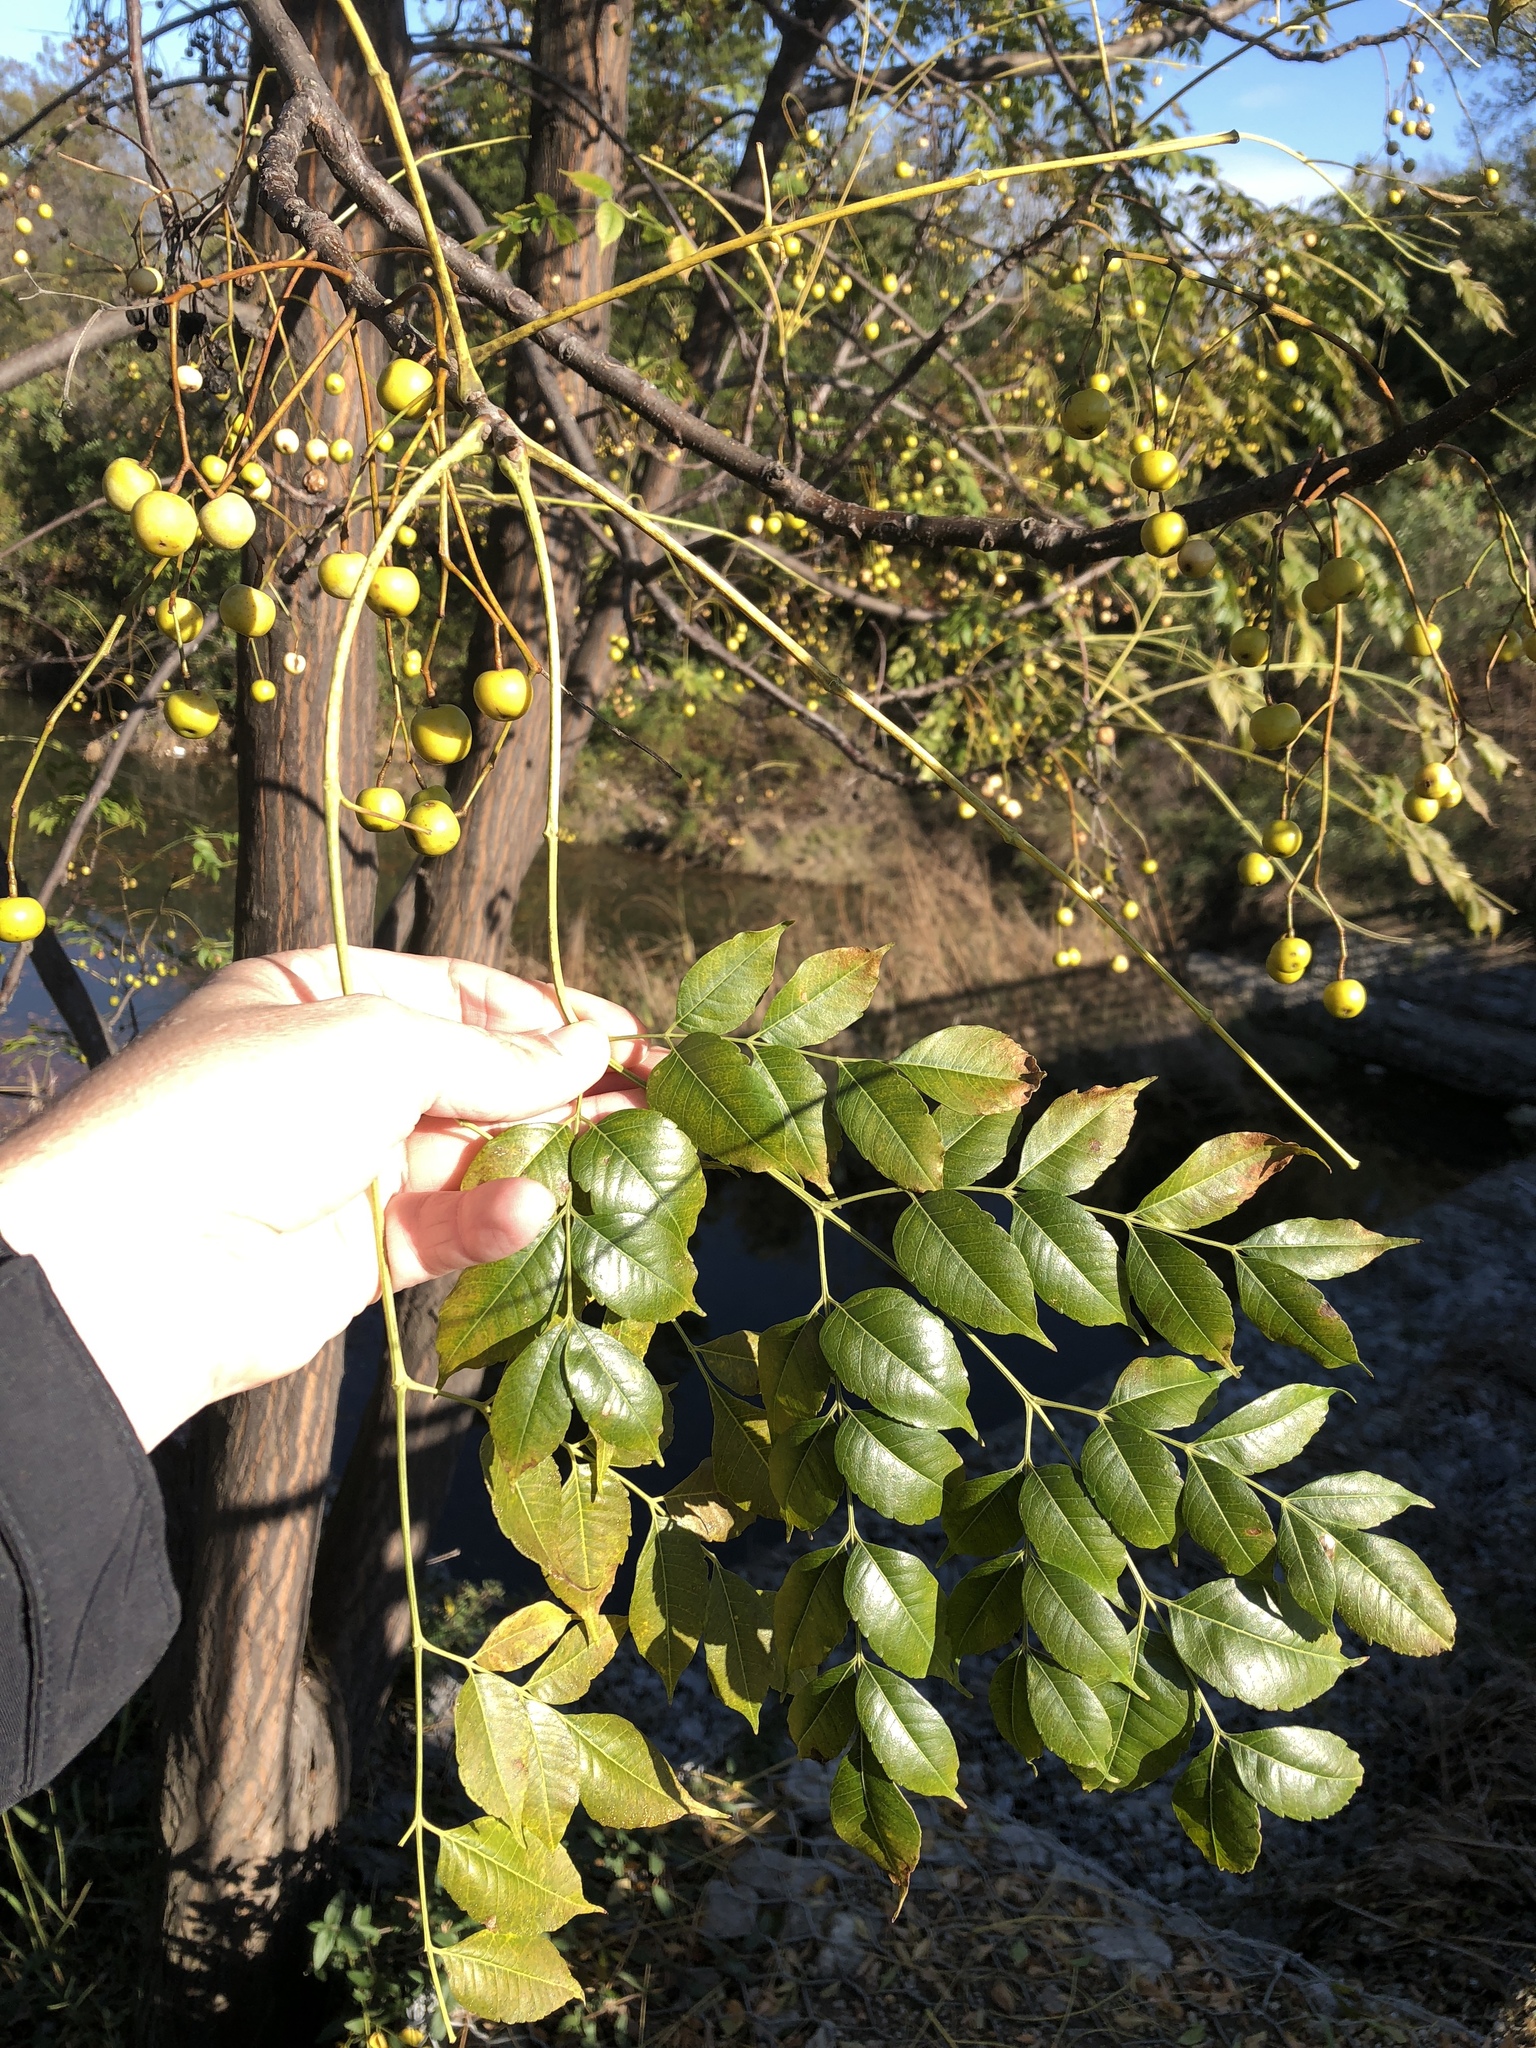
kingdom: Plantae
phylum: Tracheophyta
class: Magnoliopsida
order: Sapindales
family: Meliaceae
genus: Melia
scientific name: Melia azedarach
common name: Chinaberrytree
